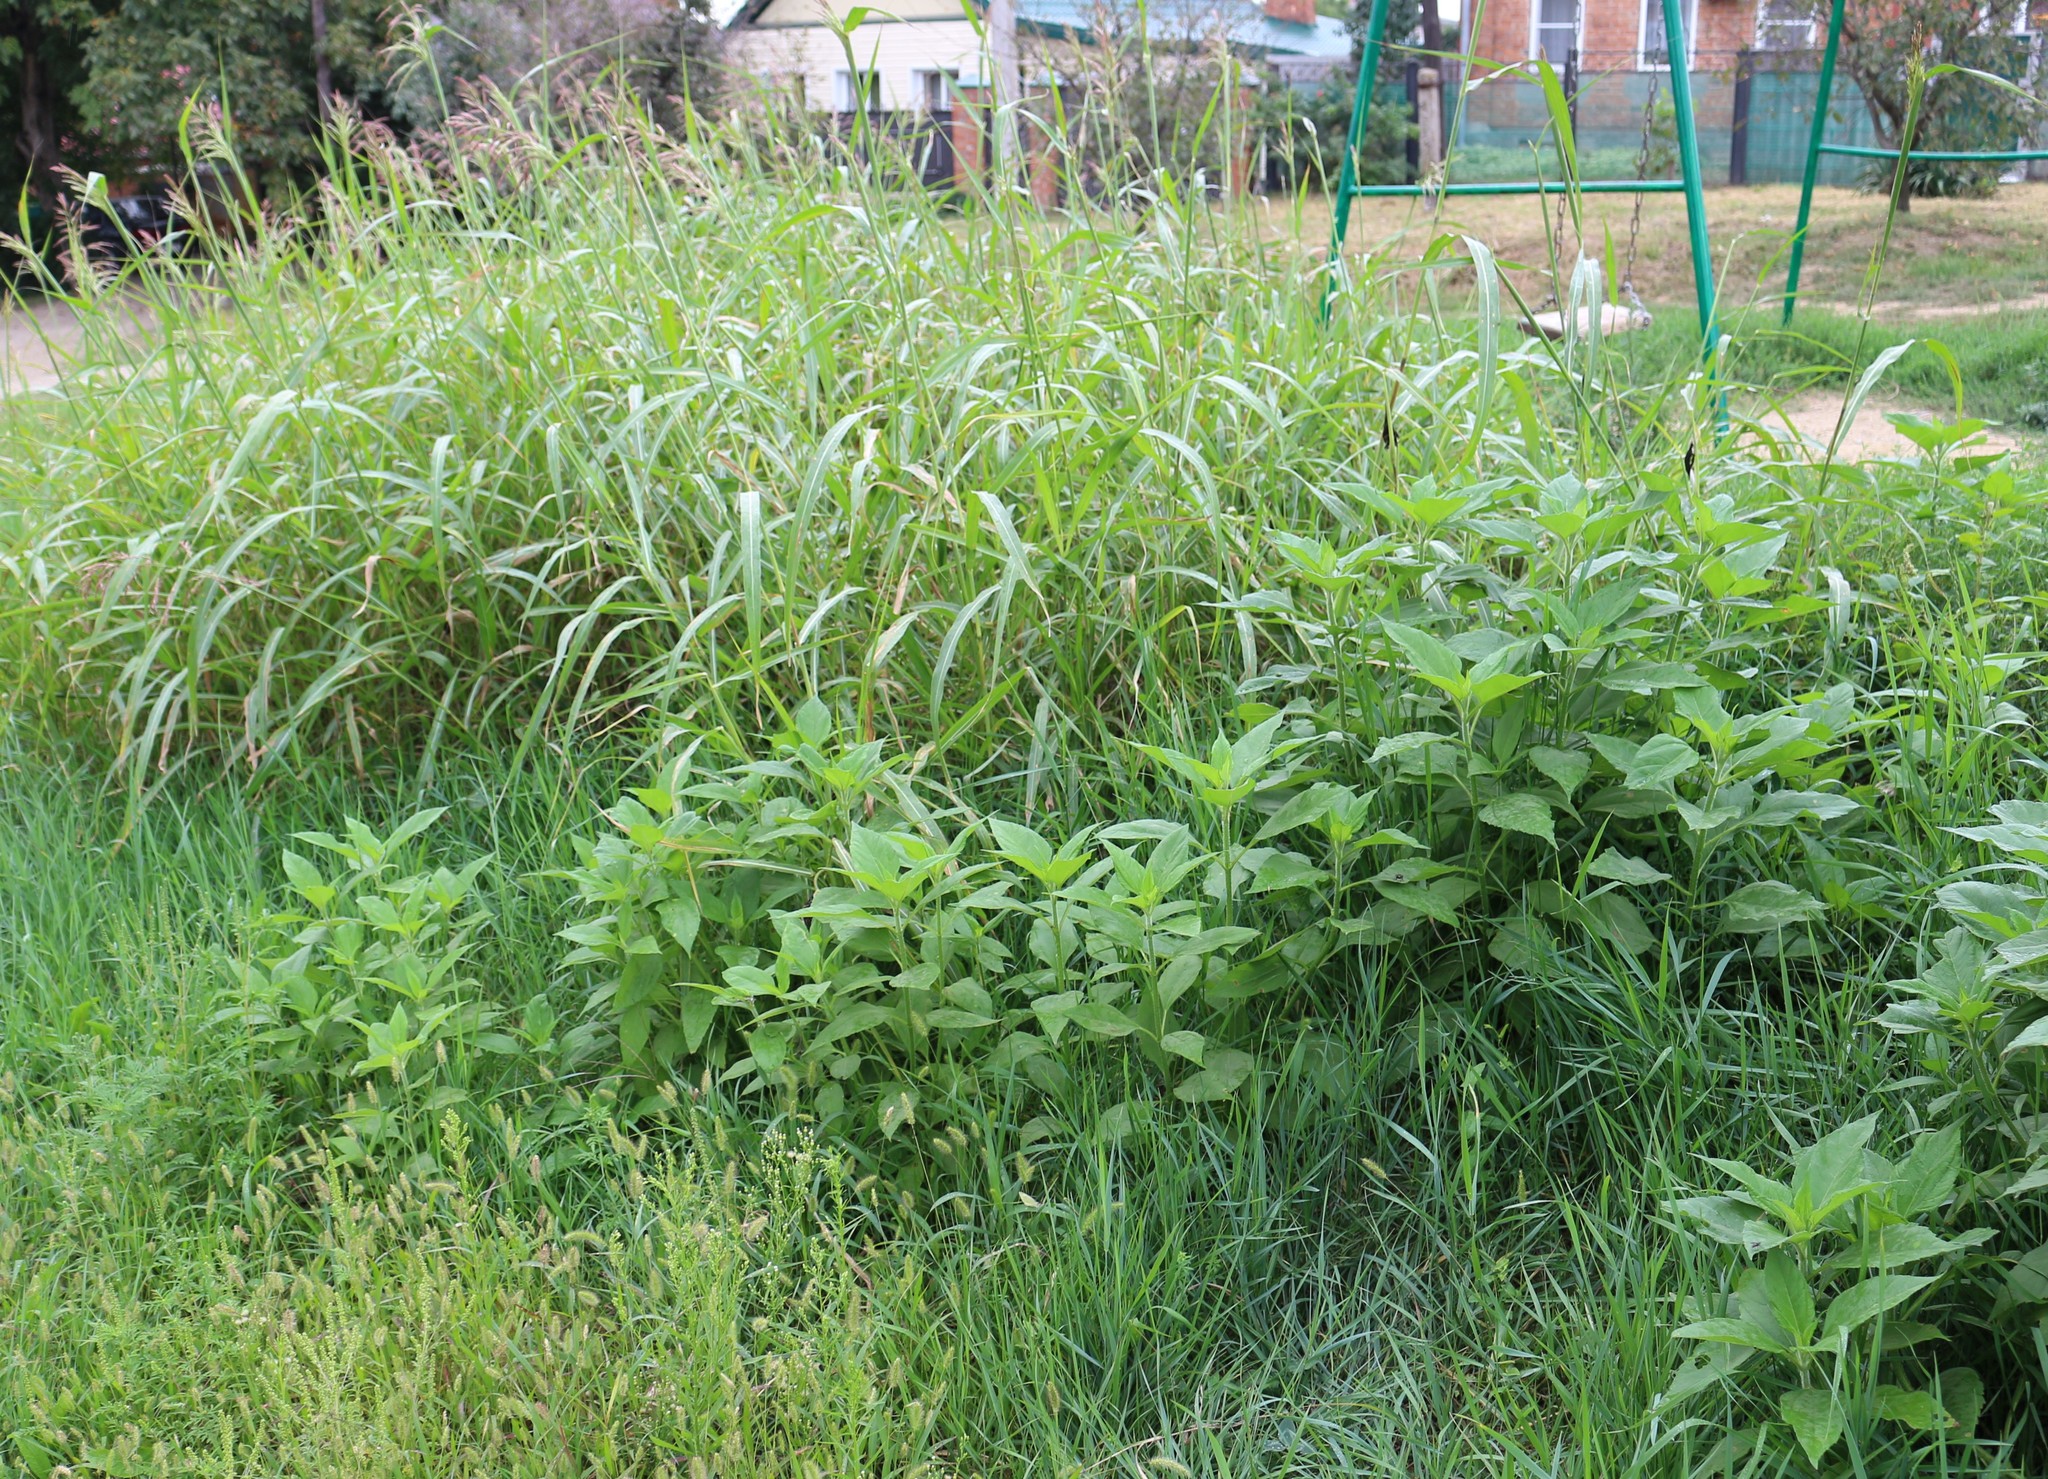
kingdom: Plantae
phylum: Tracheophyta
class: Magnoliopsida
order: Asterales
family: Asteraceae
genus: Helianthus
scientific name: Helianthus tuberosus
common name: Jerusalem artichoke
